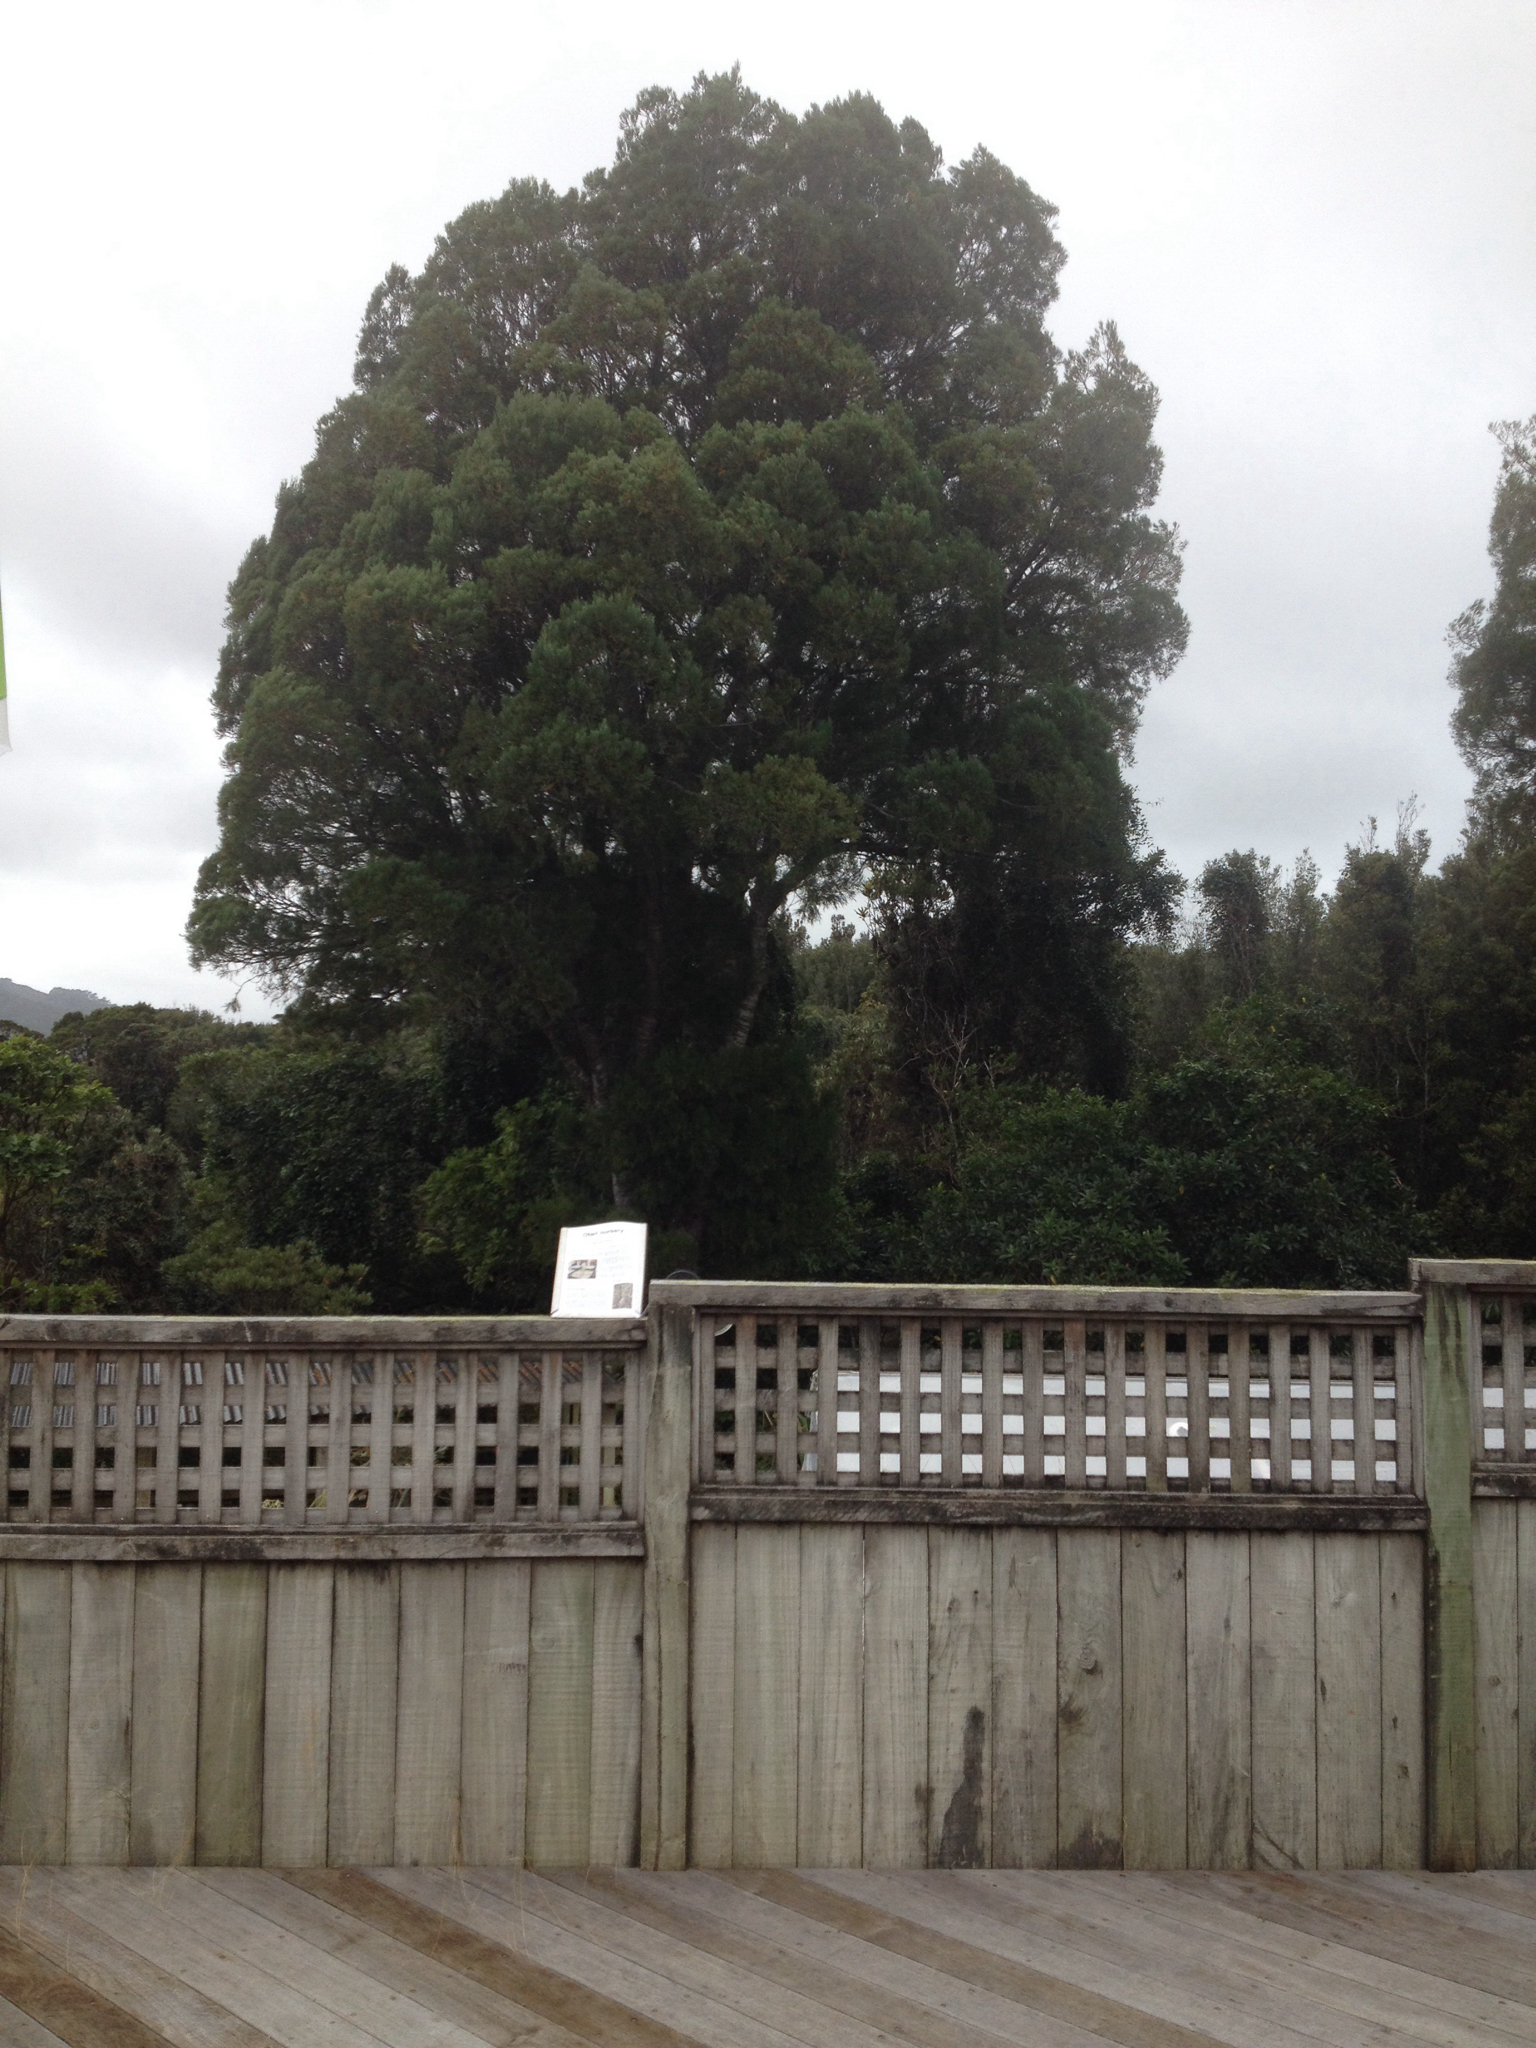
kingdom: Plantae
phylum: Tracheophyta
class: Pinopsida
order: Pinales
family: Podocarpaceae
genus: Dacrycarpus
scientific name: Dacrycarpus dacrydioides
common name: White pine
